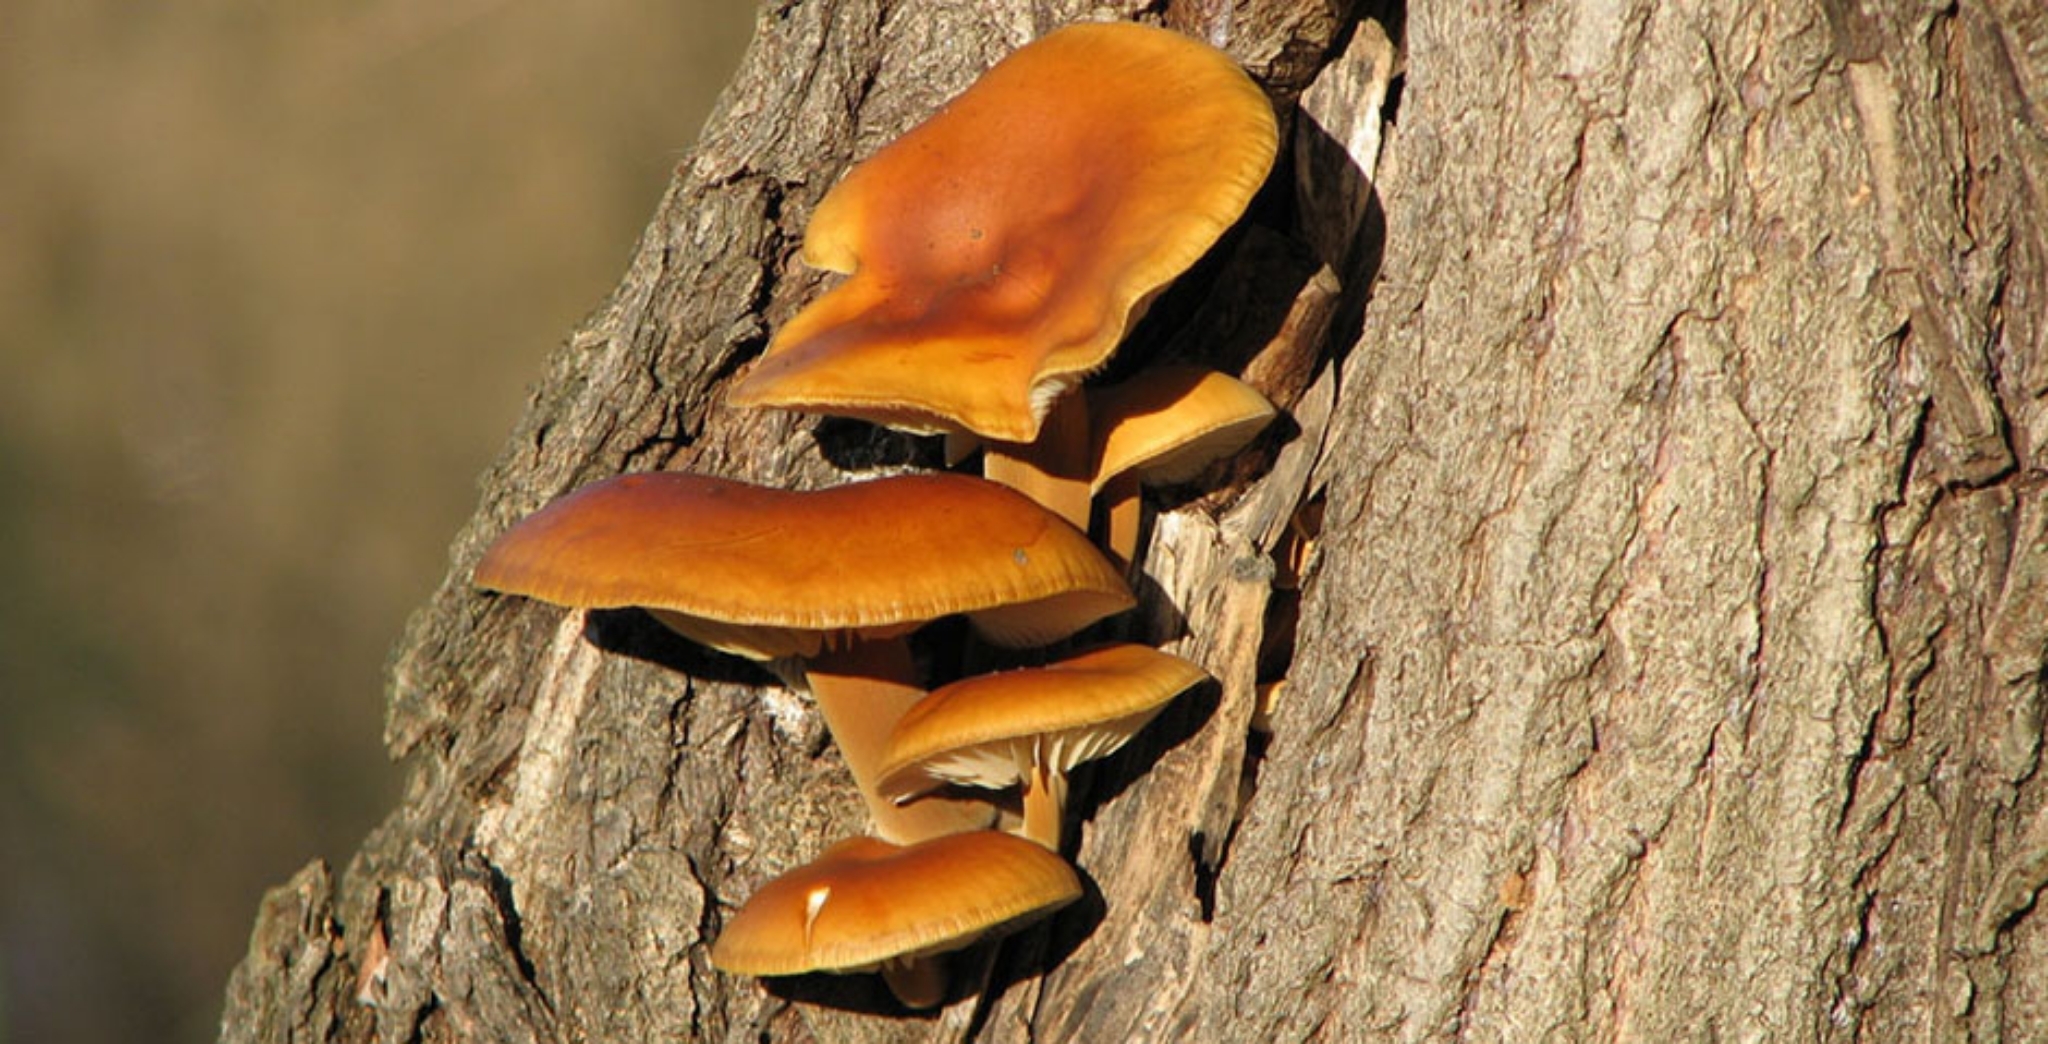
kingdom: Fungi
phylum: Basidiomycota
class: Agaricomycetes
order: Agaricales
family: Physalacriaceae
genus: Flammulina
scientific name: Flammulina
